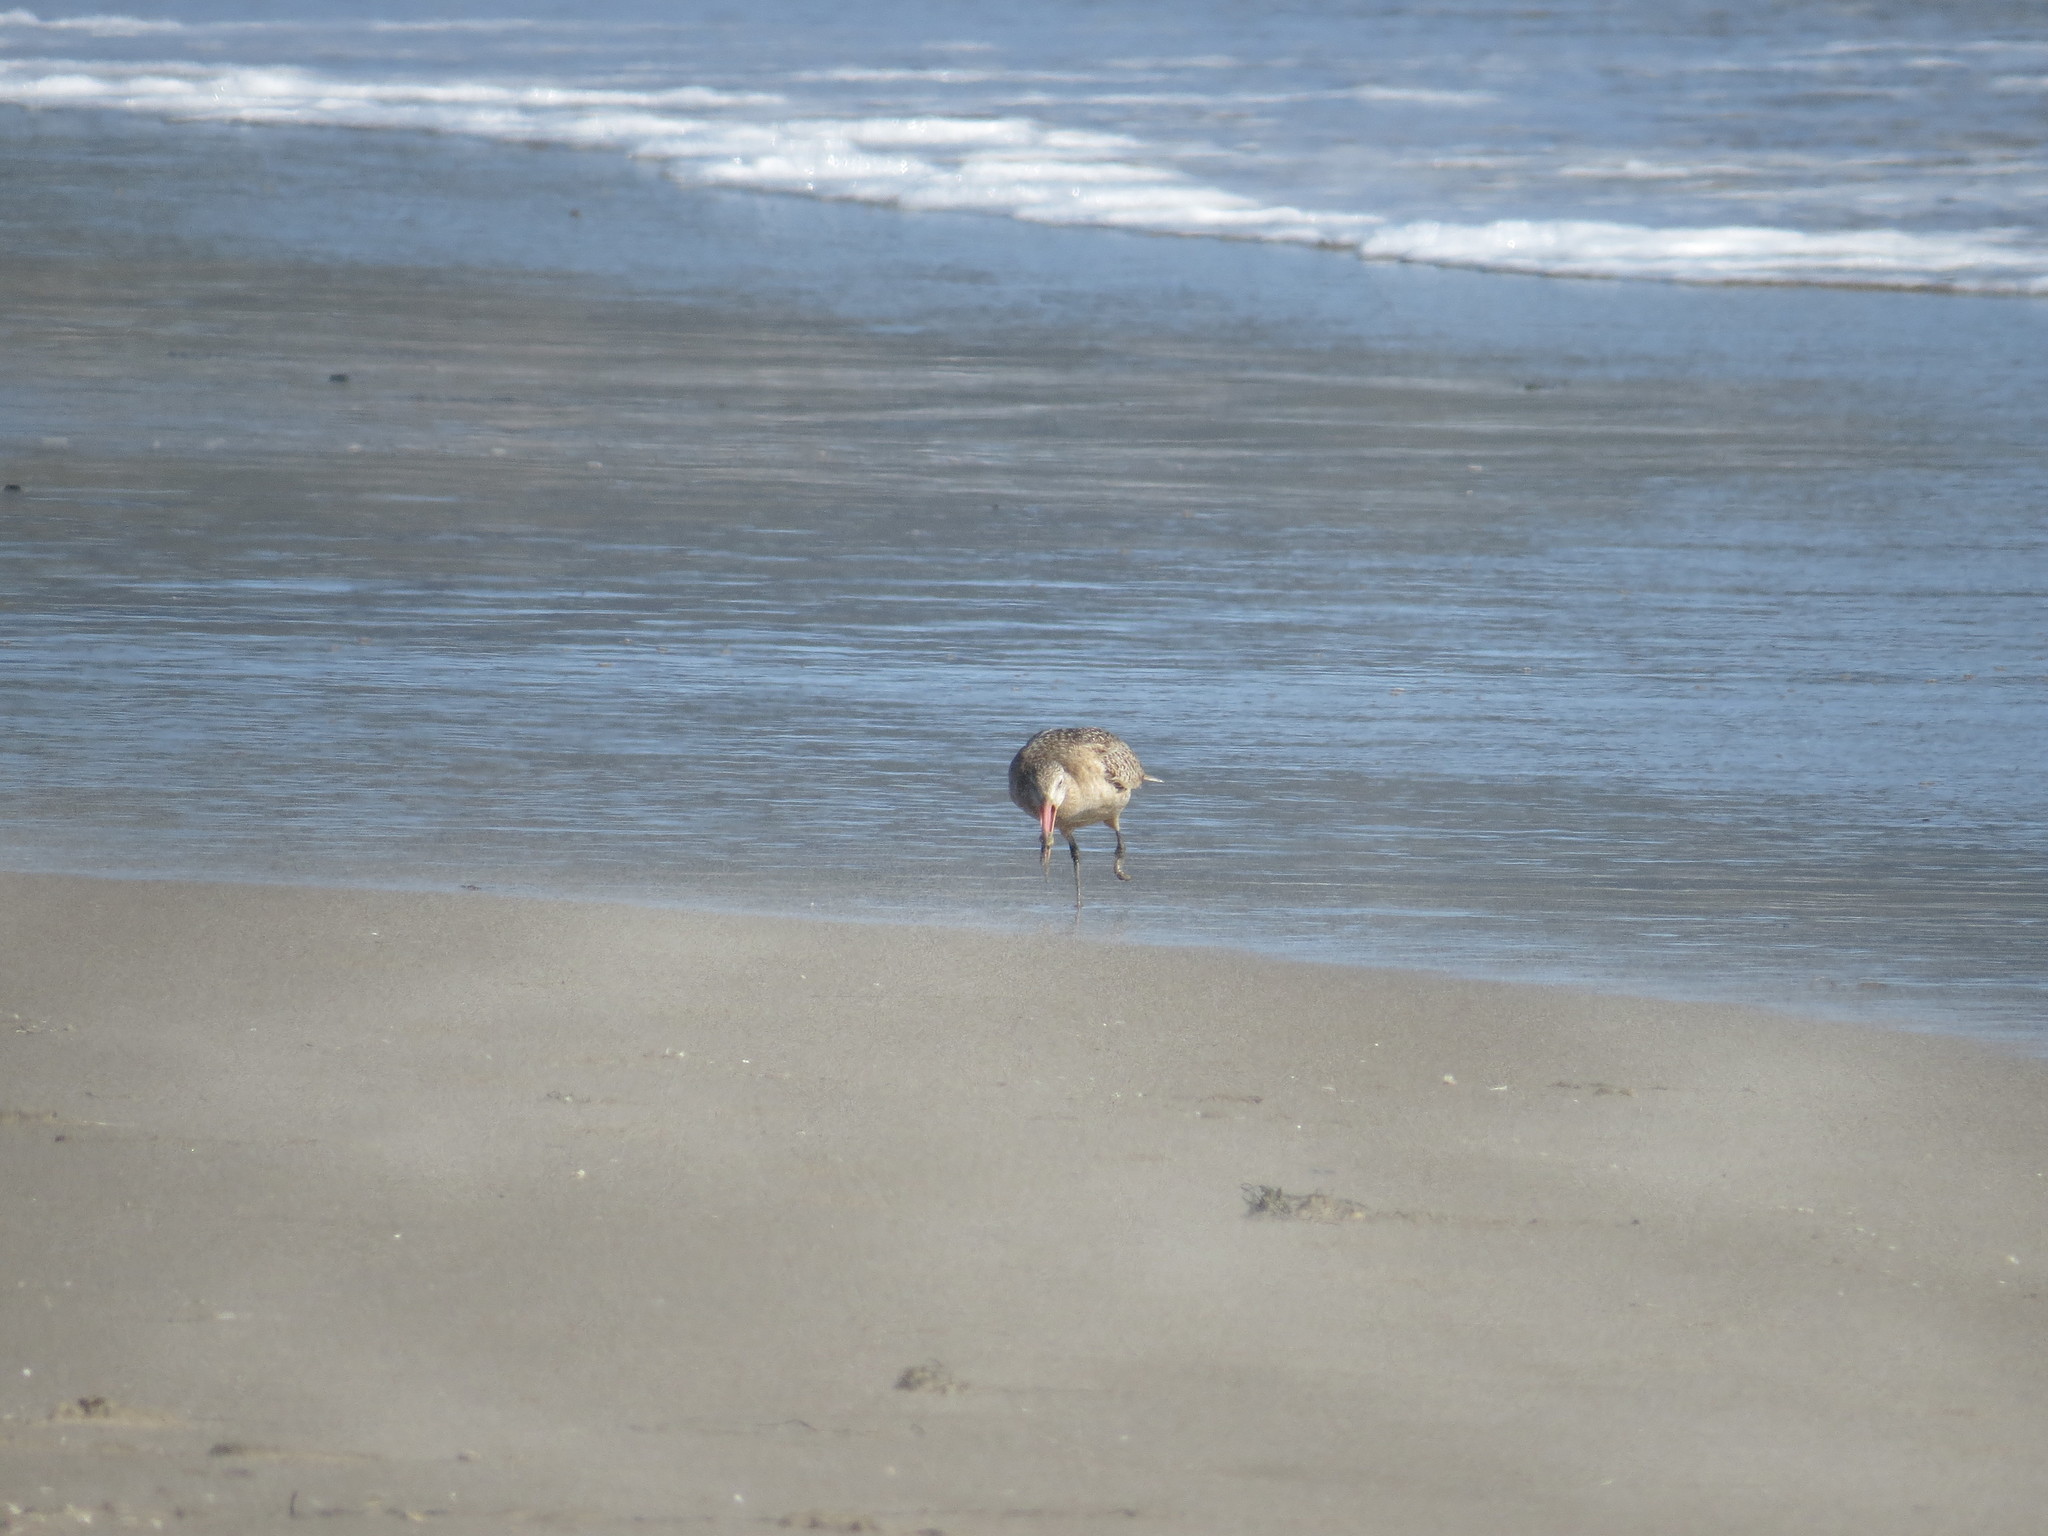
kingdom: Animalia
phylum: Chordata
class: Aves
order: Charadriiformes
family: Scolopacidae
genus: Limosa
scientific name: Limosa fedoa
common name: Marbled godwit
